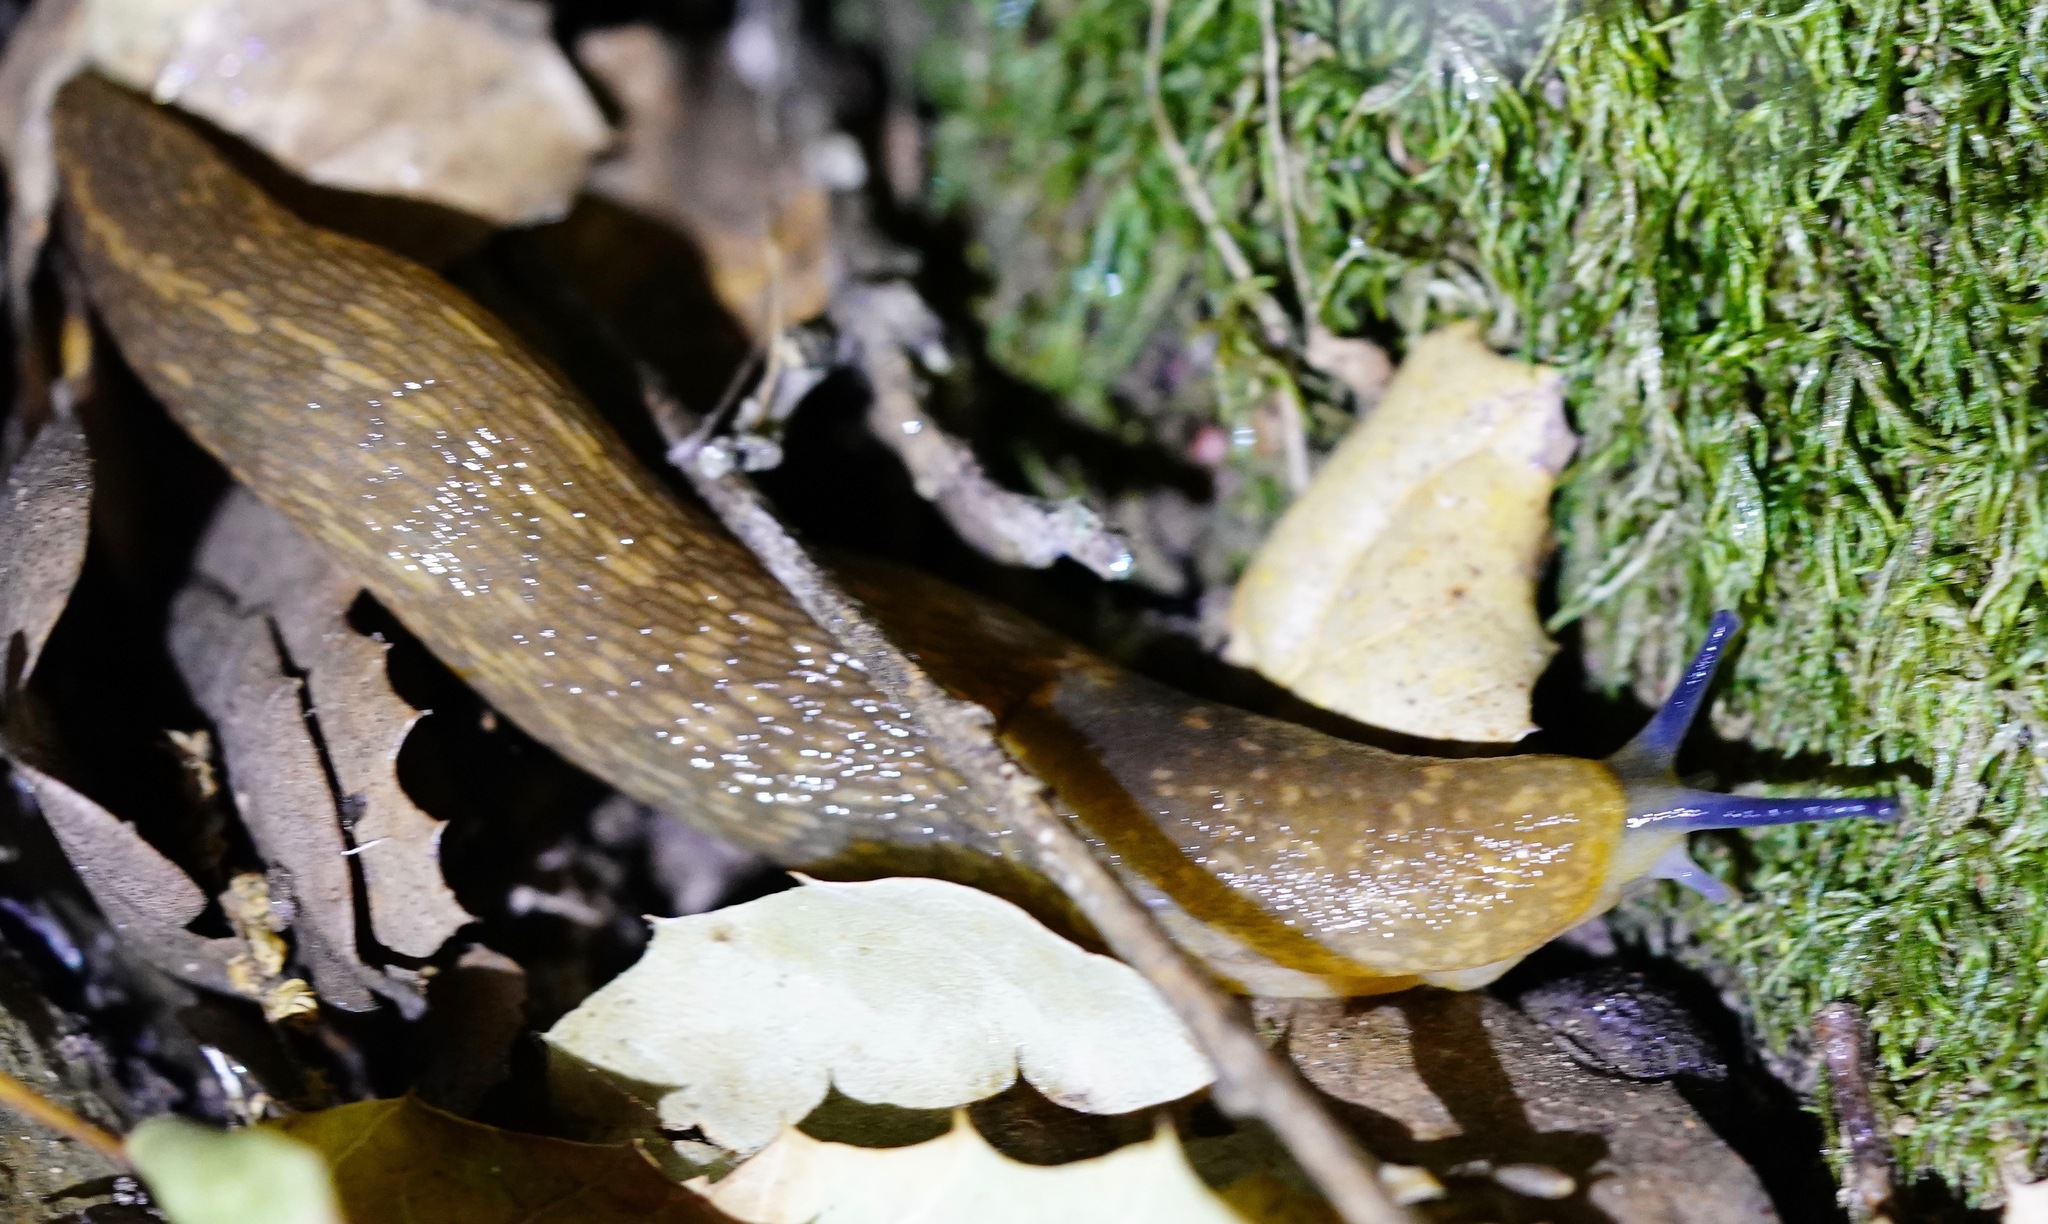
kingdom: Animalia
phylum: Mollusca
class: Gastropoda
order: Stylommatophora
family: Limacidae
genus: Limacus
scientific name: Limacus flavus
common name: Yellow gardenslug
